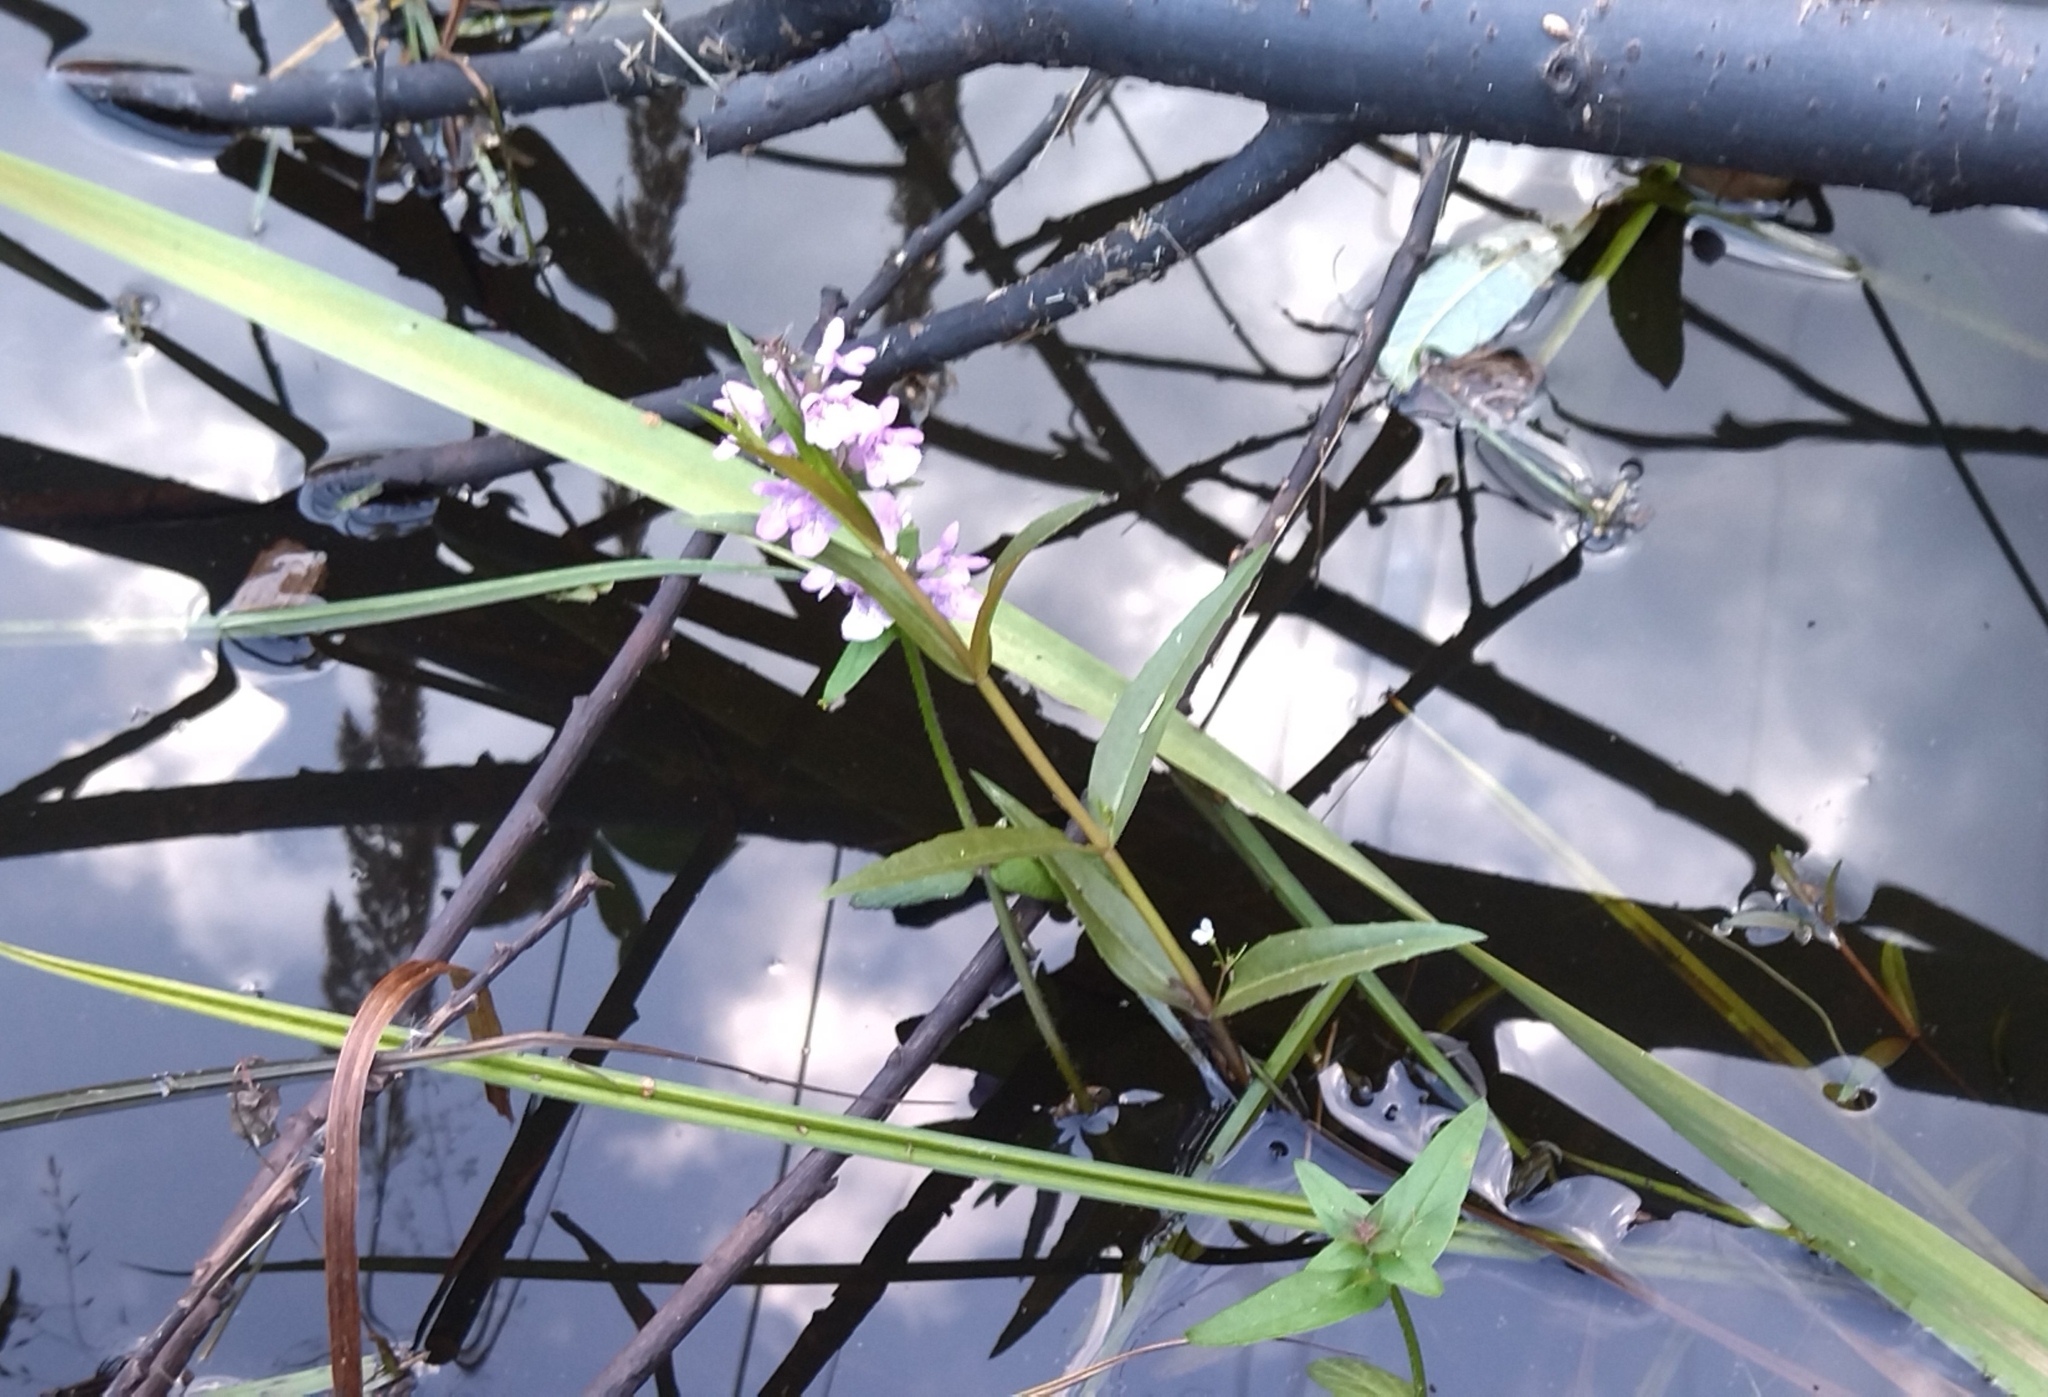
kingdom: Plantae
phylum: Tracheophyta
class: Magnoliopsida
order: Lamiales
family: Lamiaceae
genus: Stachys
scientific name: Stachys palustris
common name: Marsh woundwort
